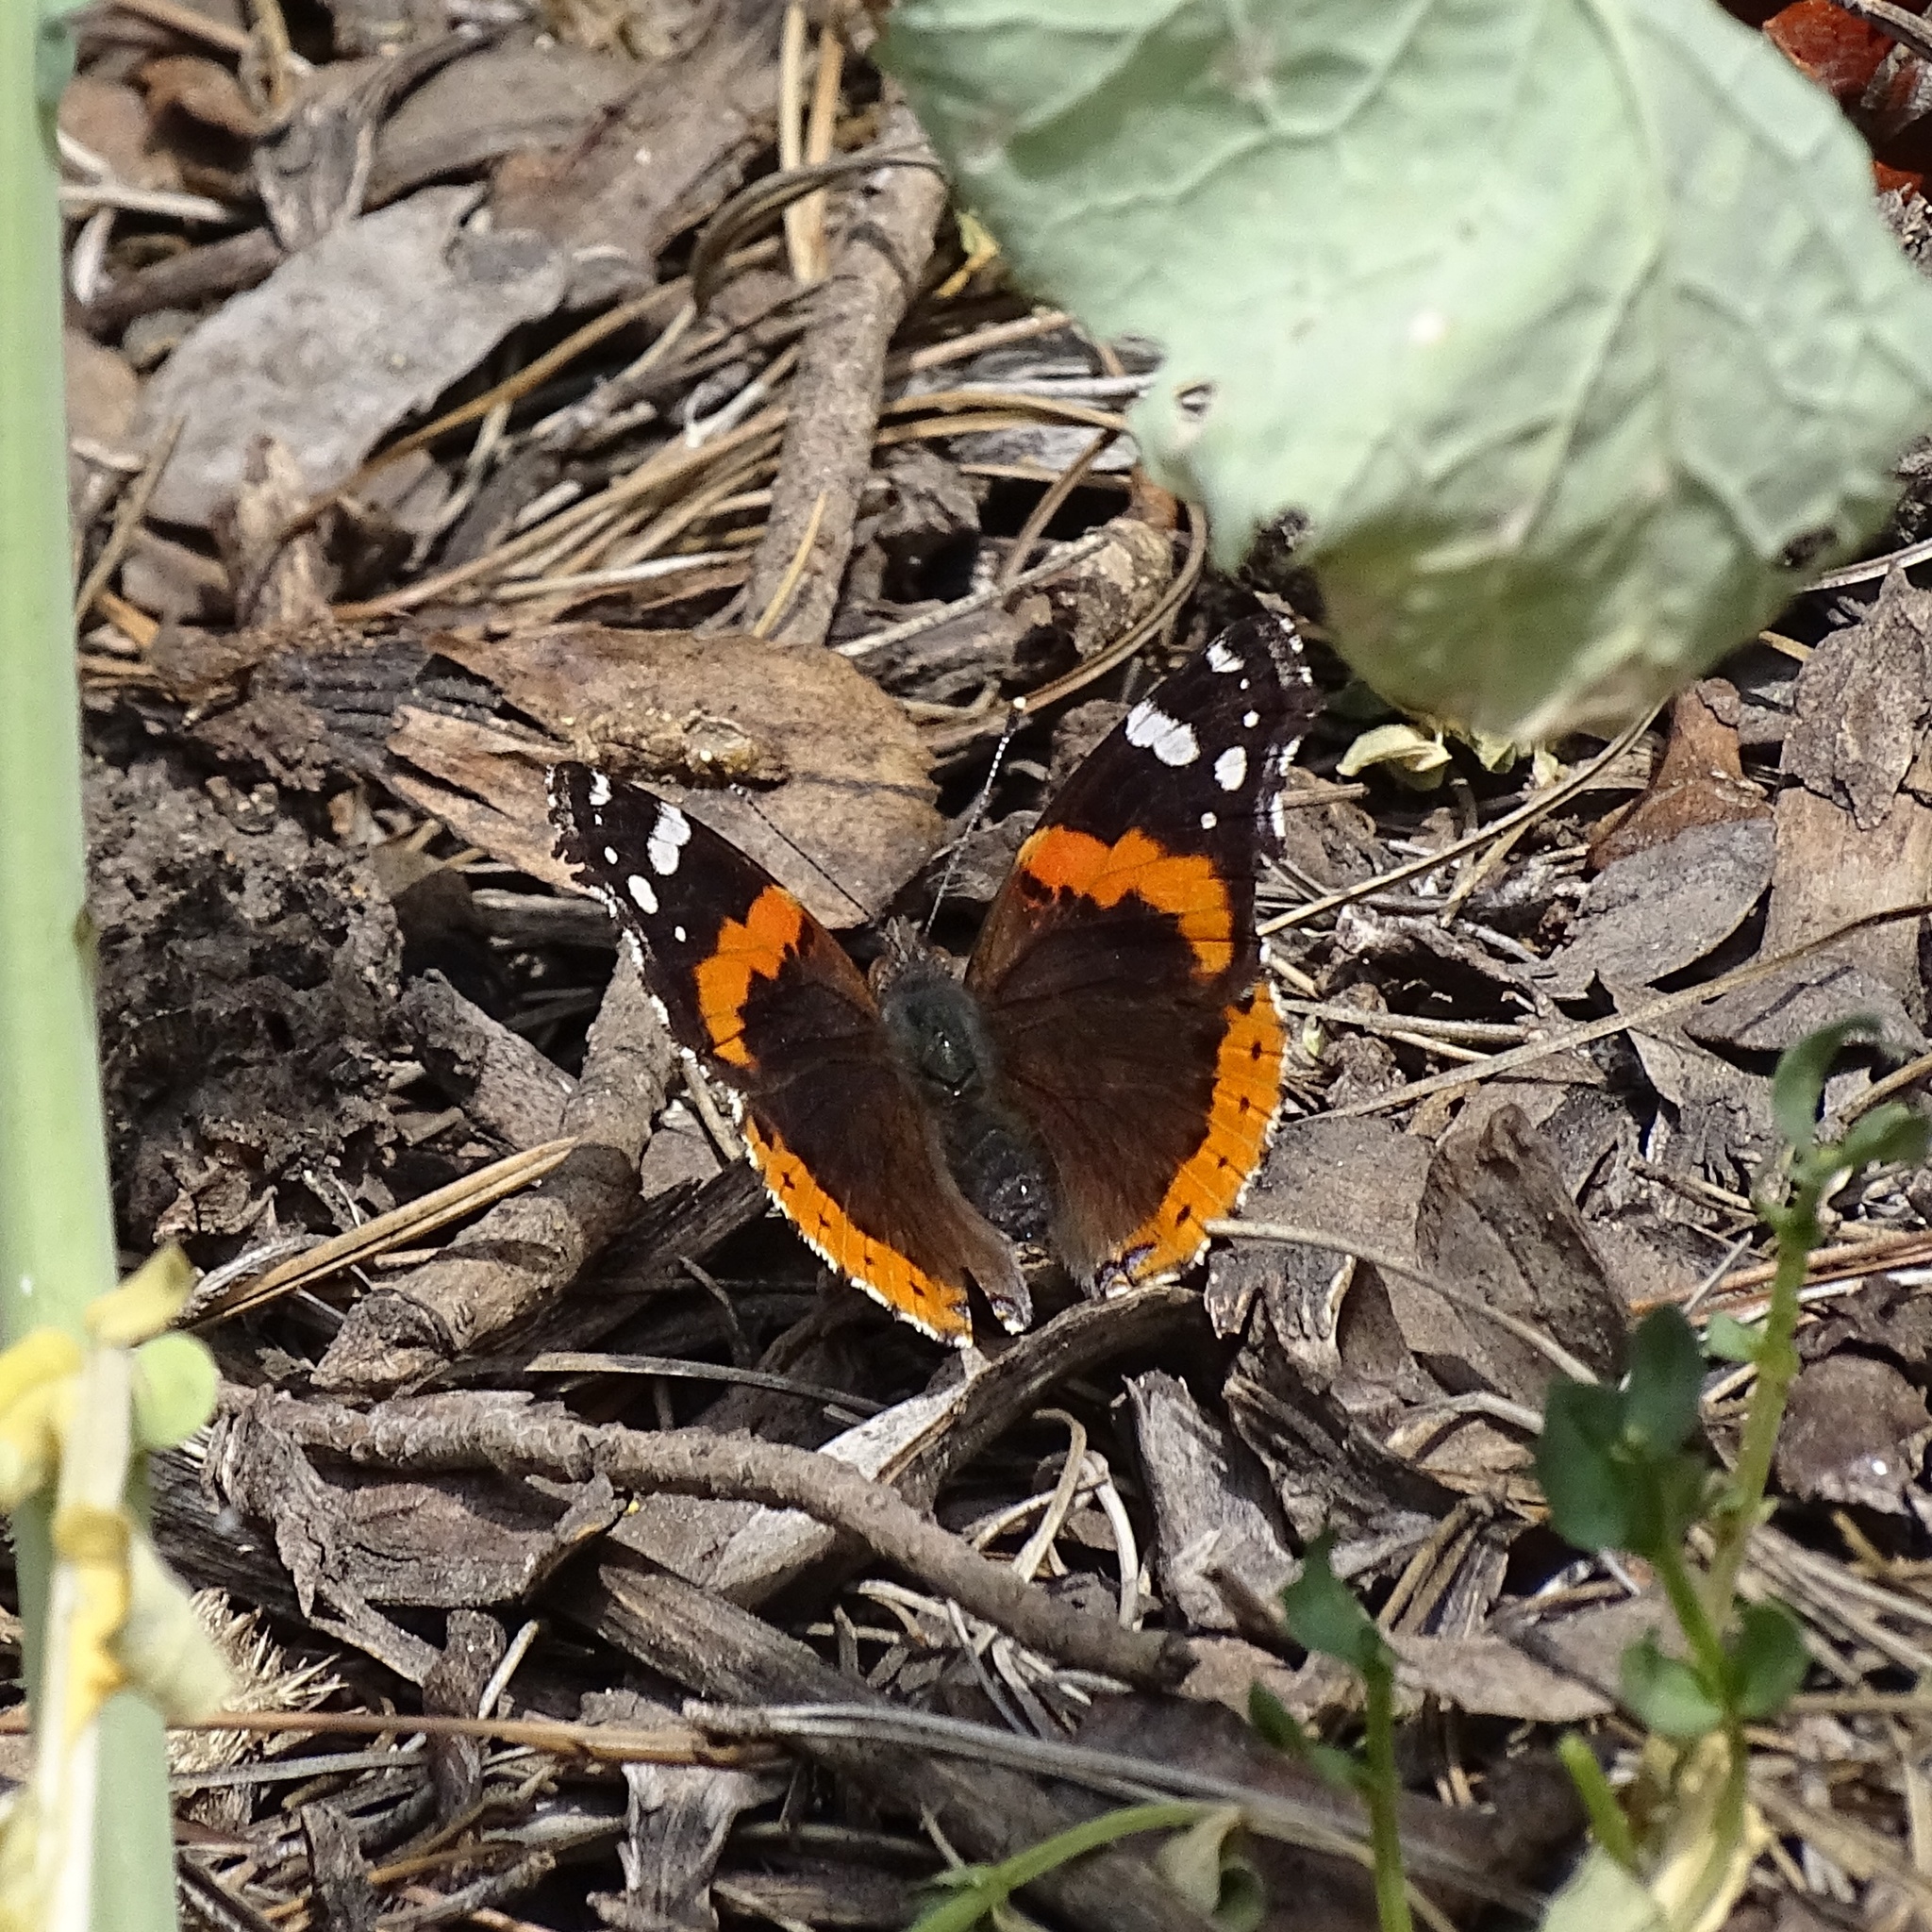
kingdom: Animalia
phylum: Arthropoda
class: Insecta
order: Lepidoptera
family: Nymphalidae
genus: Vanessa
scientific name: Vanessa atalanta
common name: Red admiral
